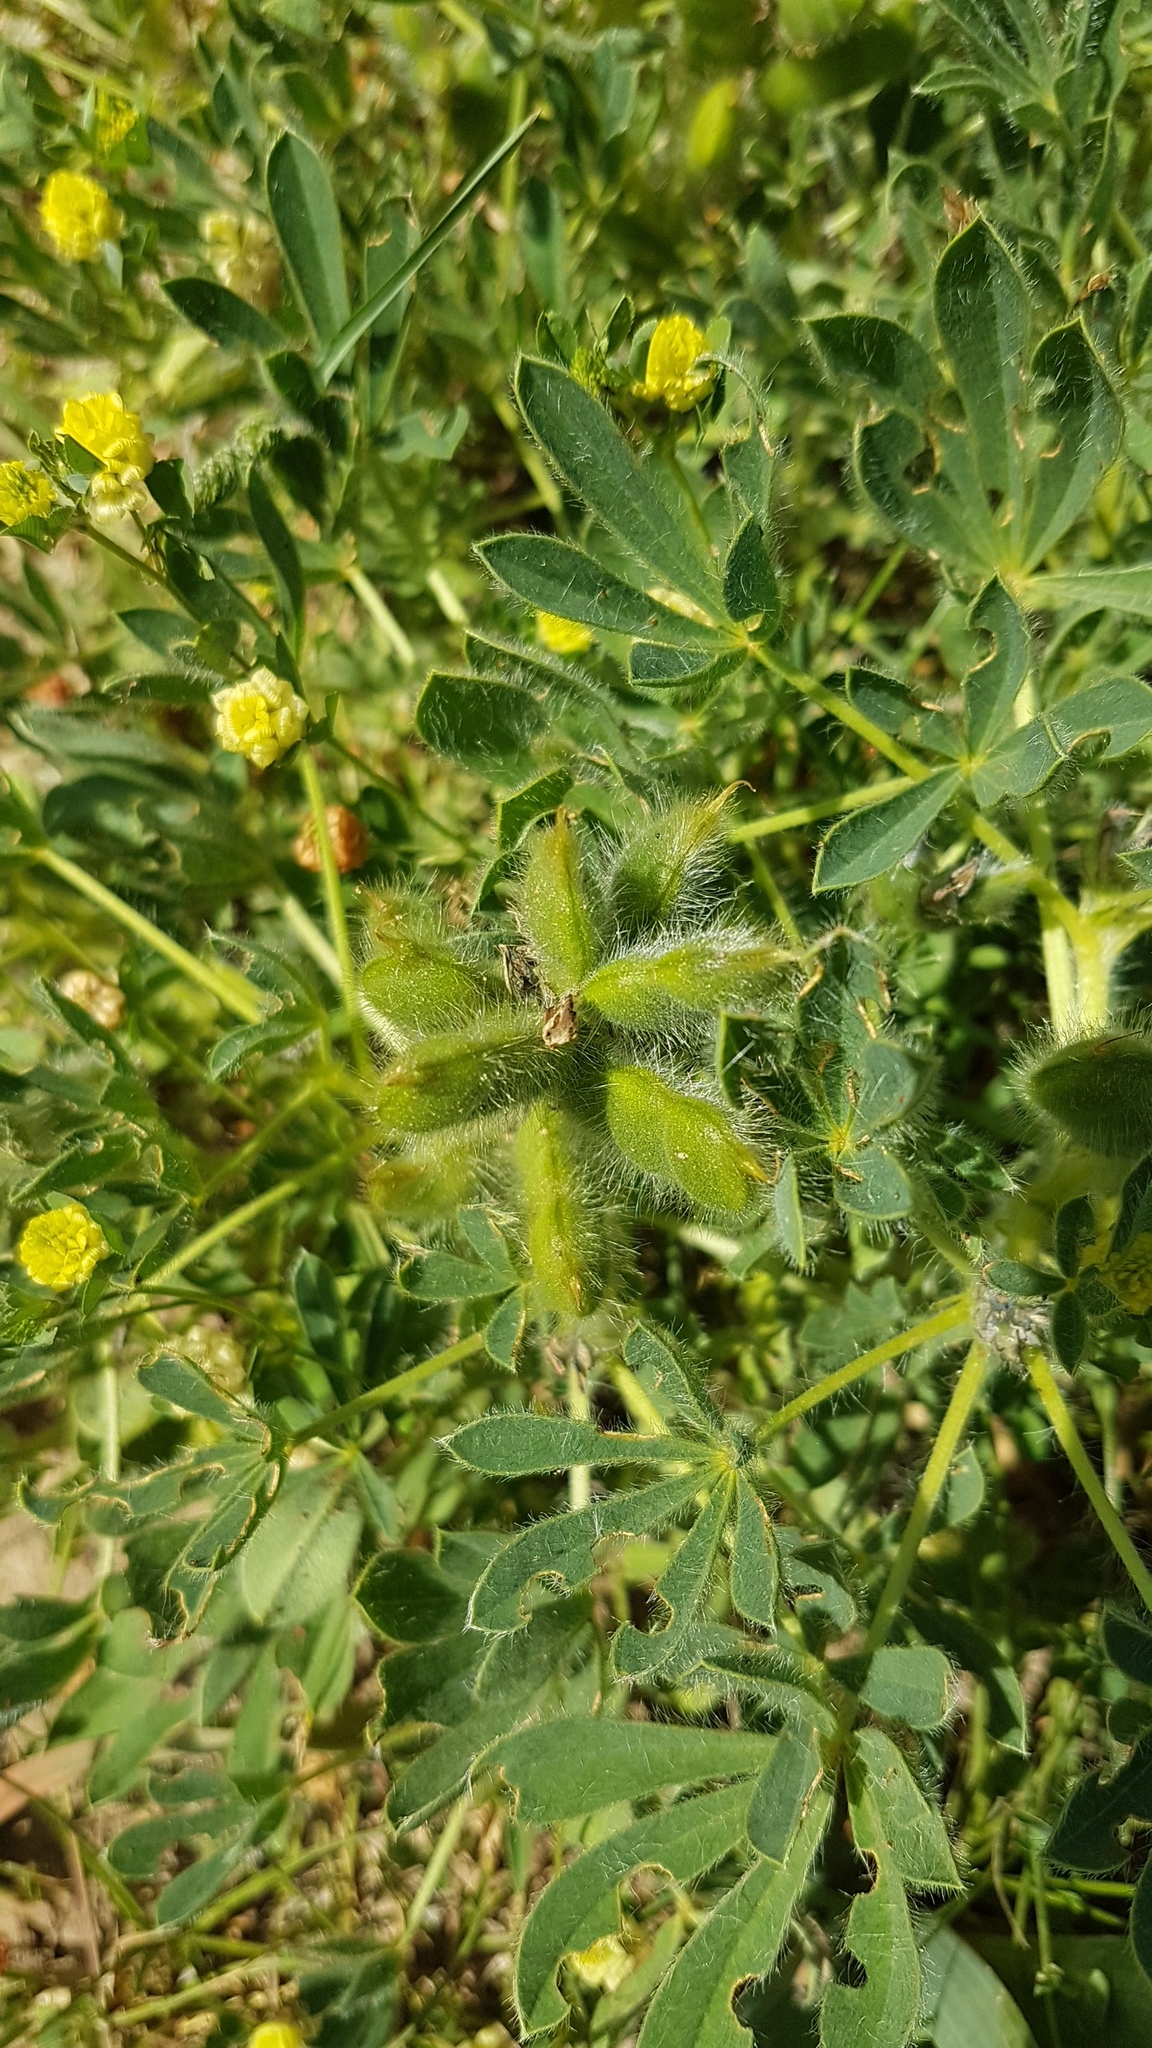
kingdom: Plantae
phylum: Tracheophyta
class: Magnoliopsida
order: Fabales
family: Fabaceae
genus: Lupinus
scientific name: Lupinus gussoneanus
